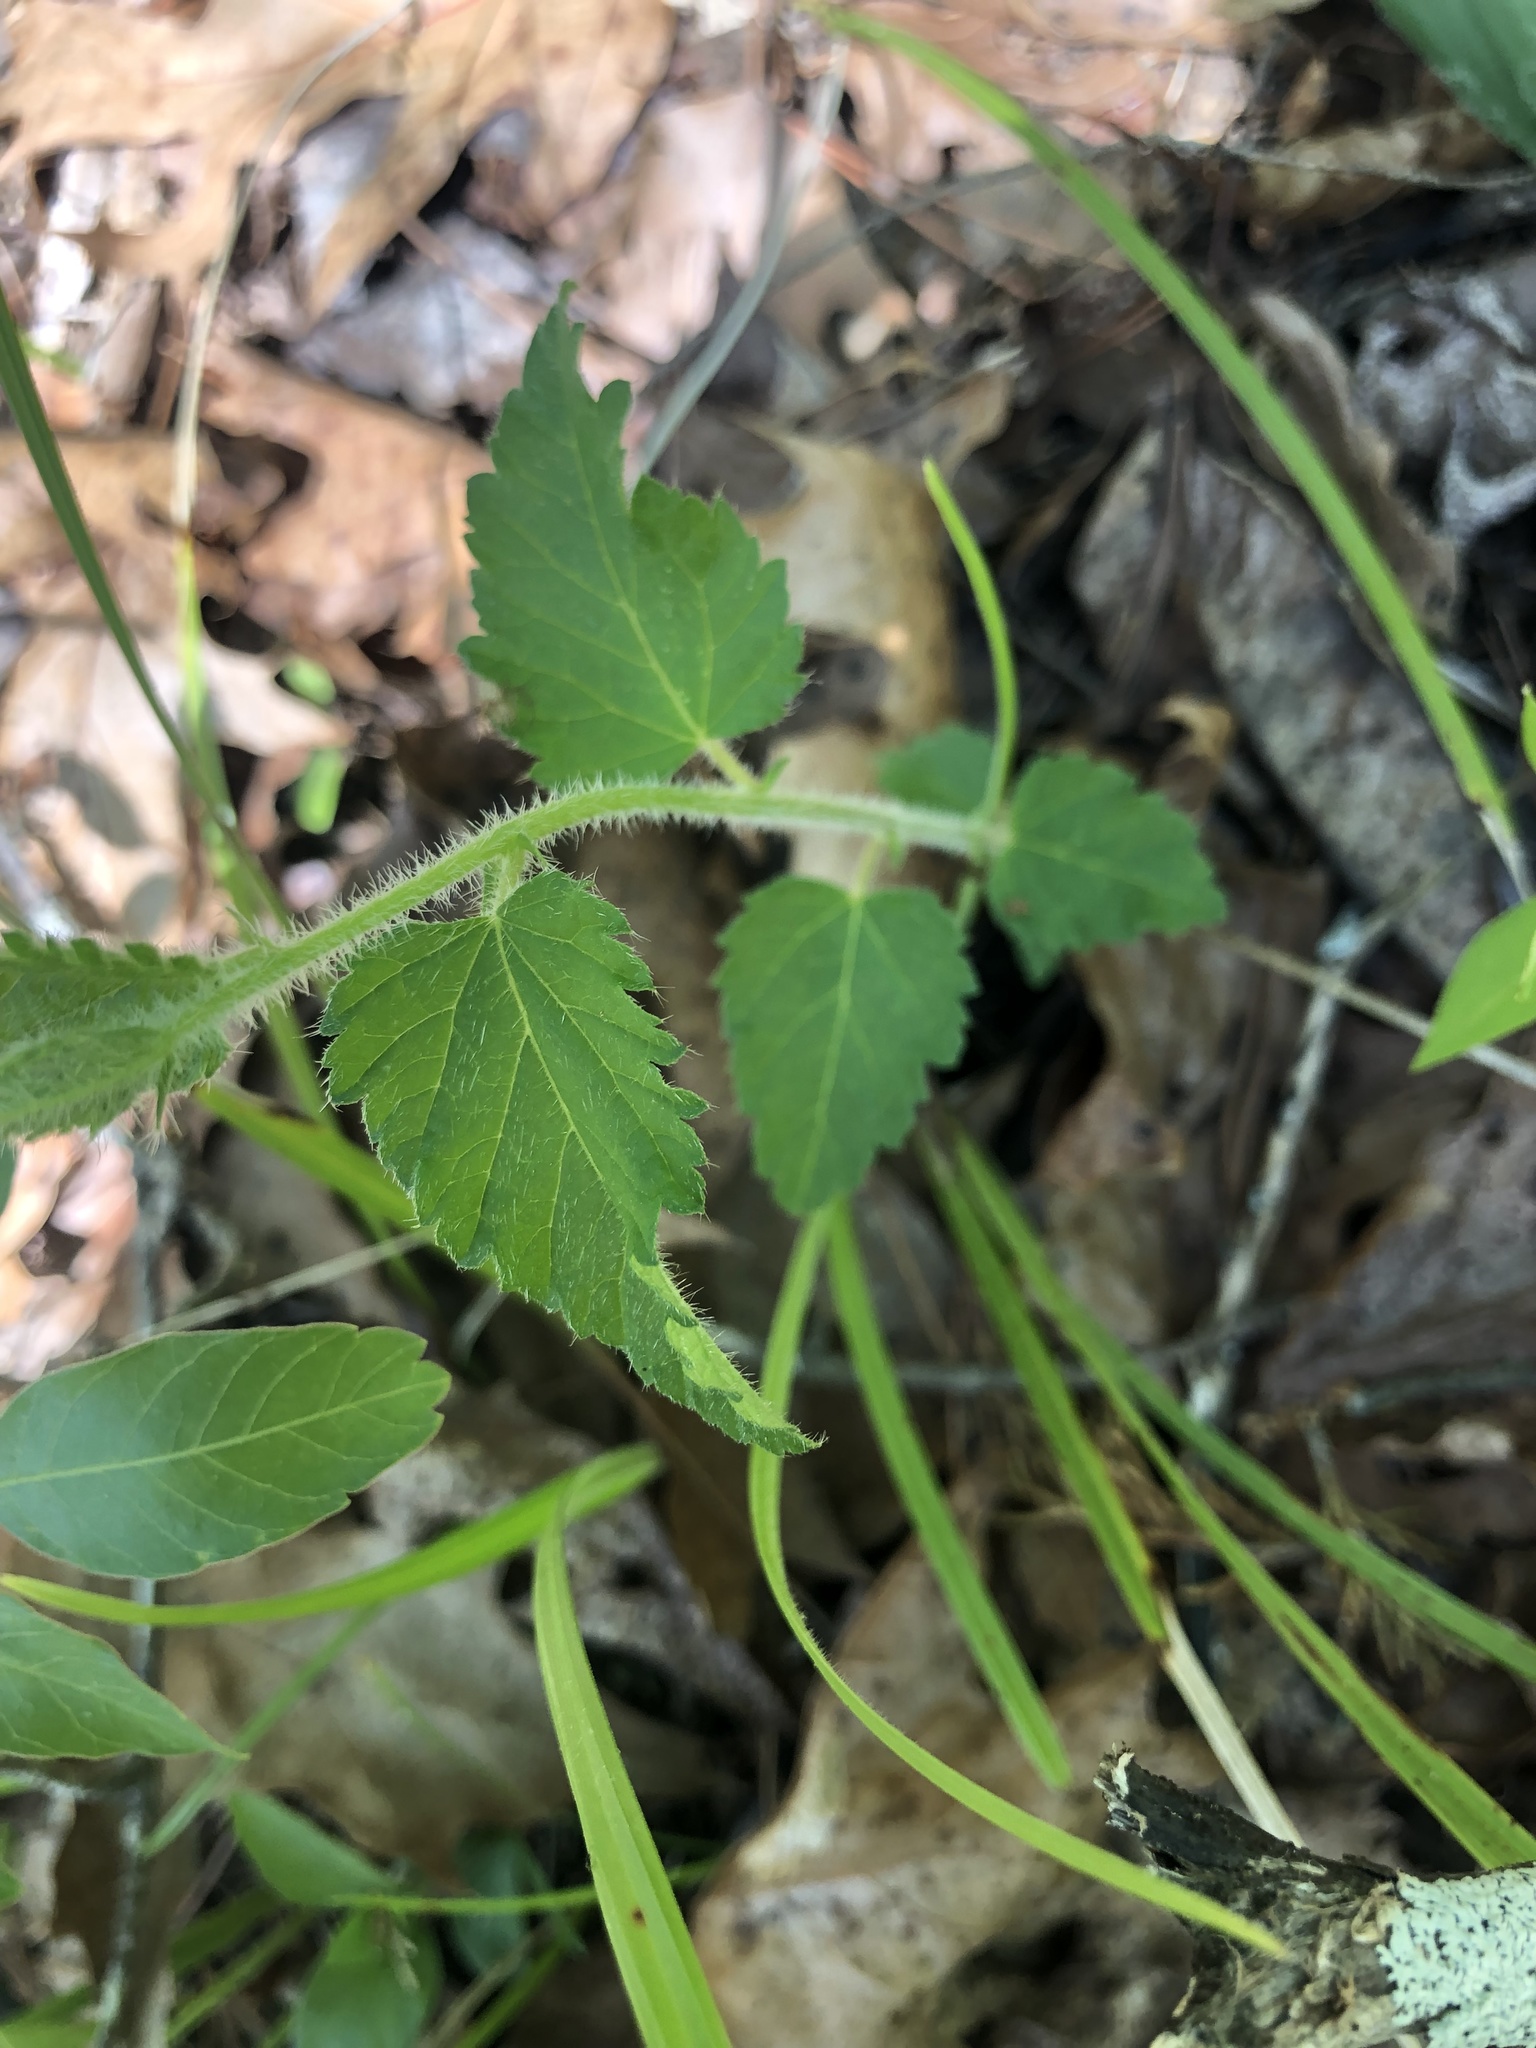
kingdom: Plantae
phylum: Tracheophyta
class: Magnoliopsida
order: Malpighiales
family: Euphorbiaceae
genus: Tragia
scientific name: Tragia urticifolia
